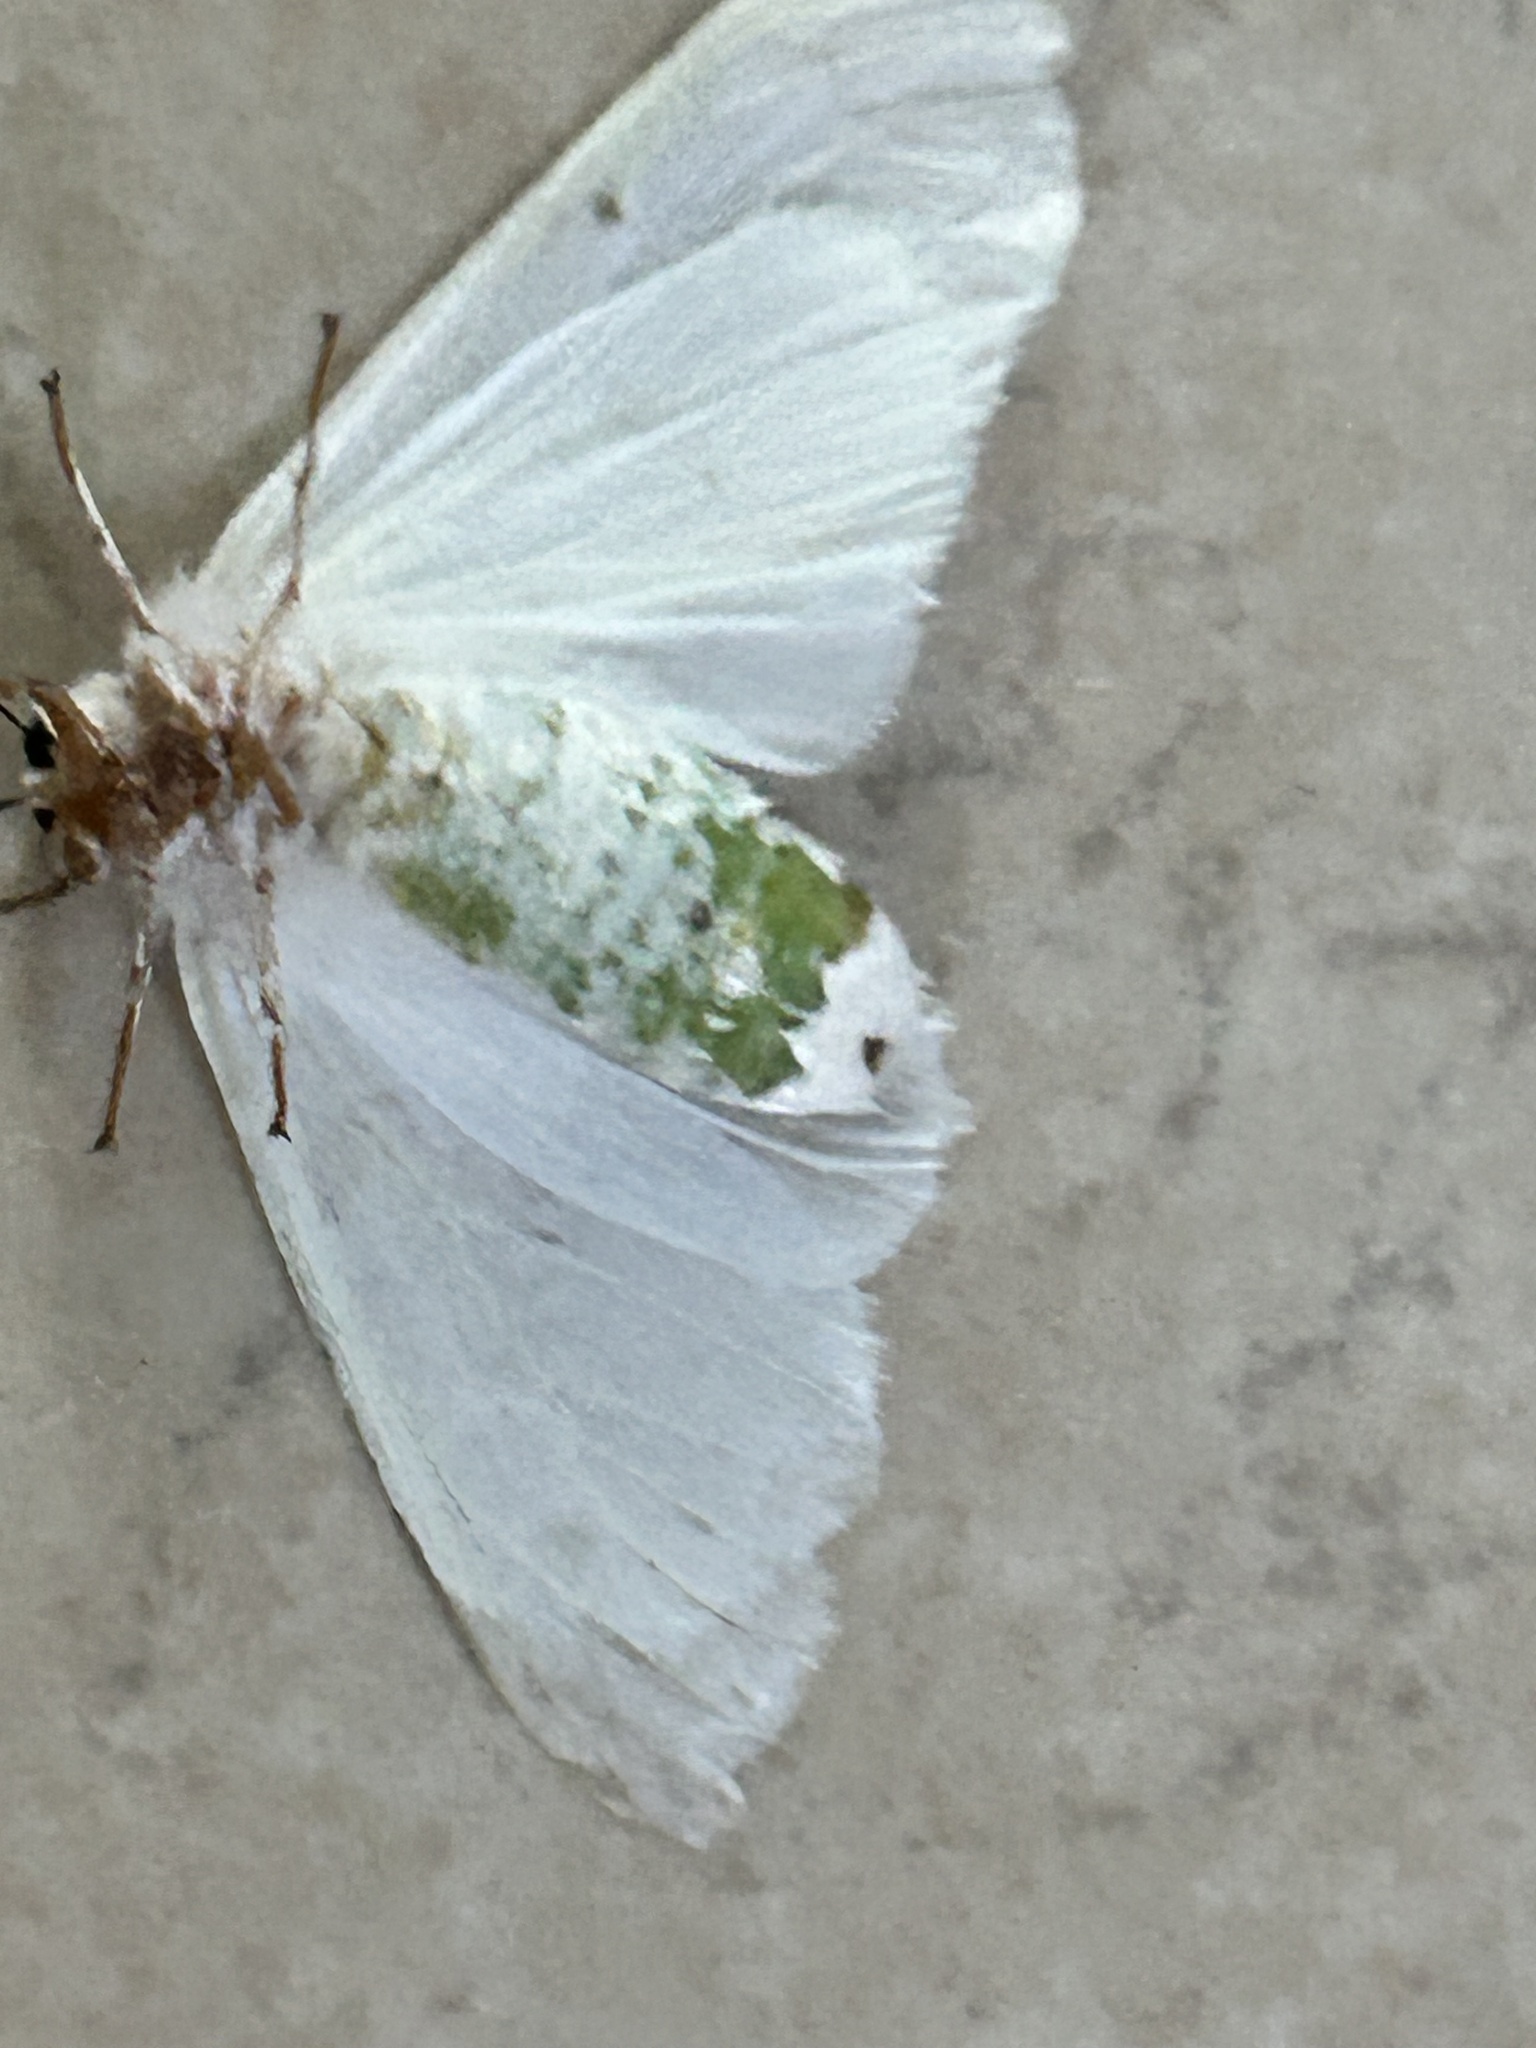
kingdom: Animalia
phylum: Arthropoda
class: Insecta
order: Lepidoptera
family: Erebidae
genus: Hyphantria
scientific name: Hyphantria cunea
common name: American white moth
